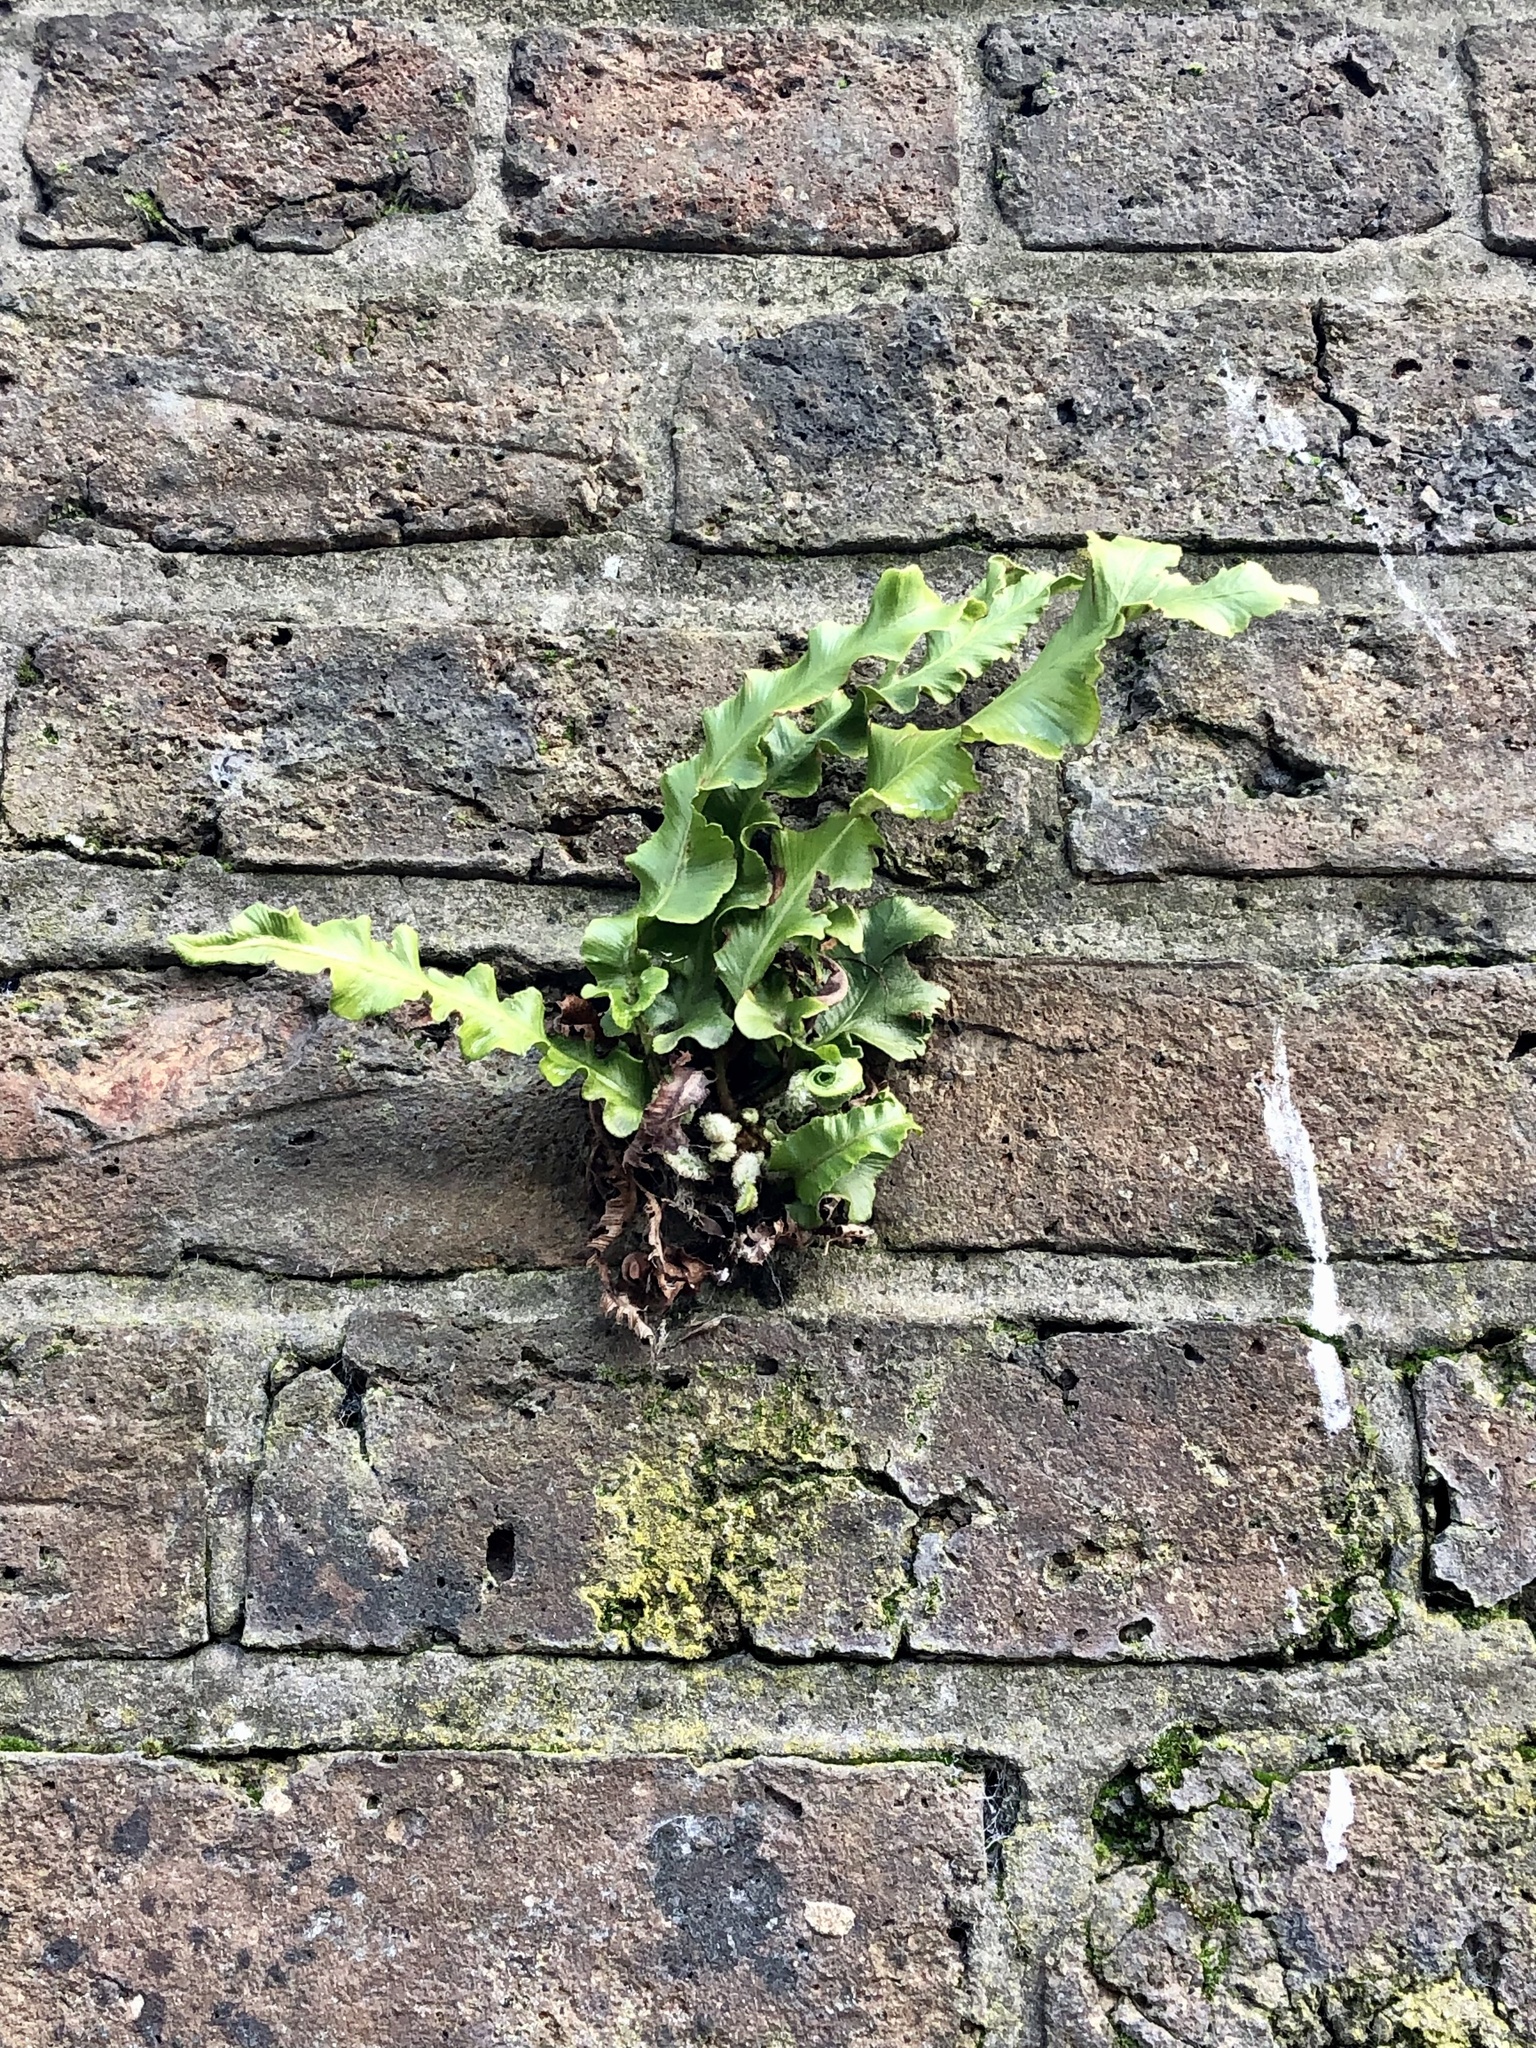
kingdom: Plantae
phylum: Tracheophyta
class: Polypodiopsida
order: Polypodiales
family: Aspleniaceae
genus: Asplenium
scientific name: Asplenium scolopendrium
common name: Hart's-tongue fern
